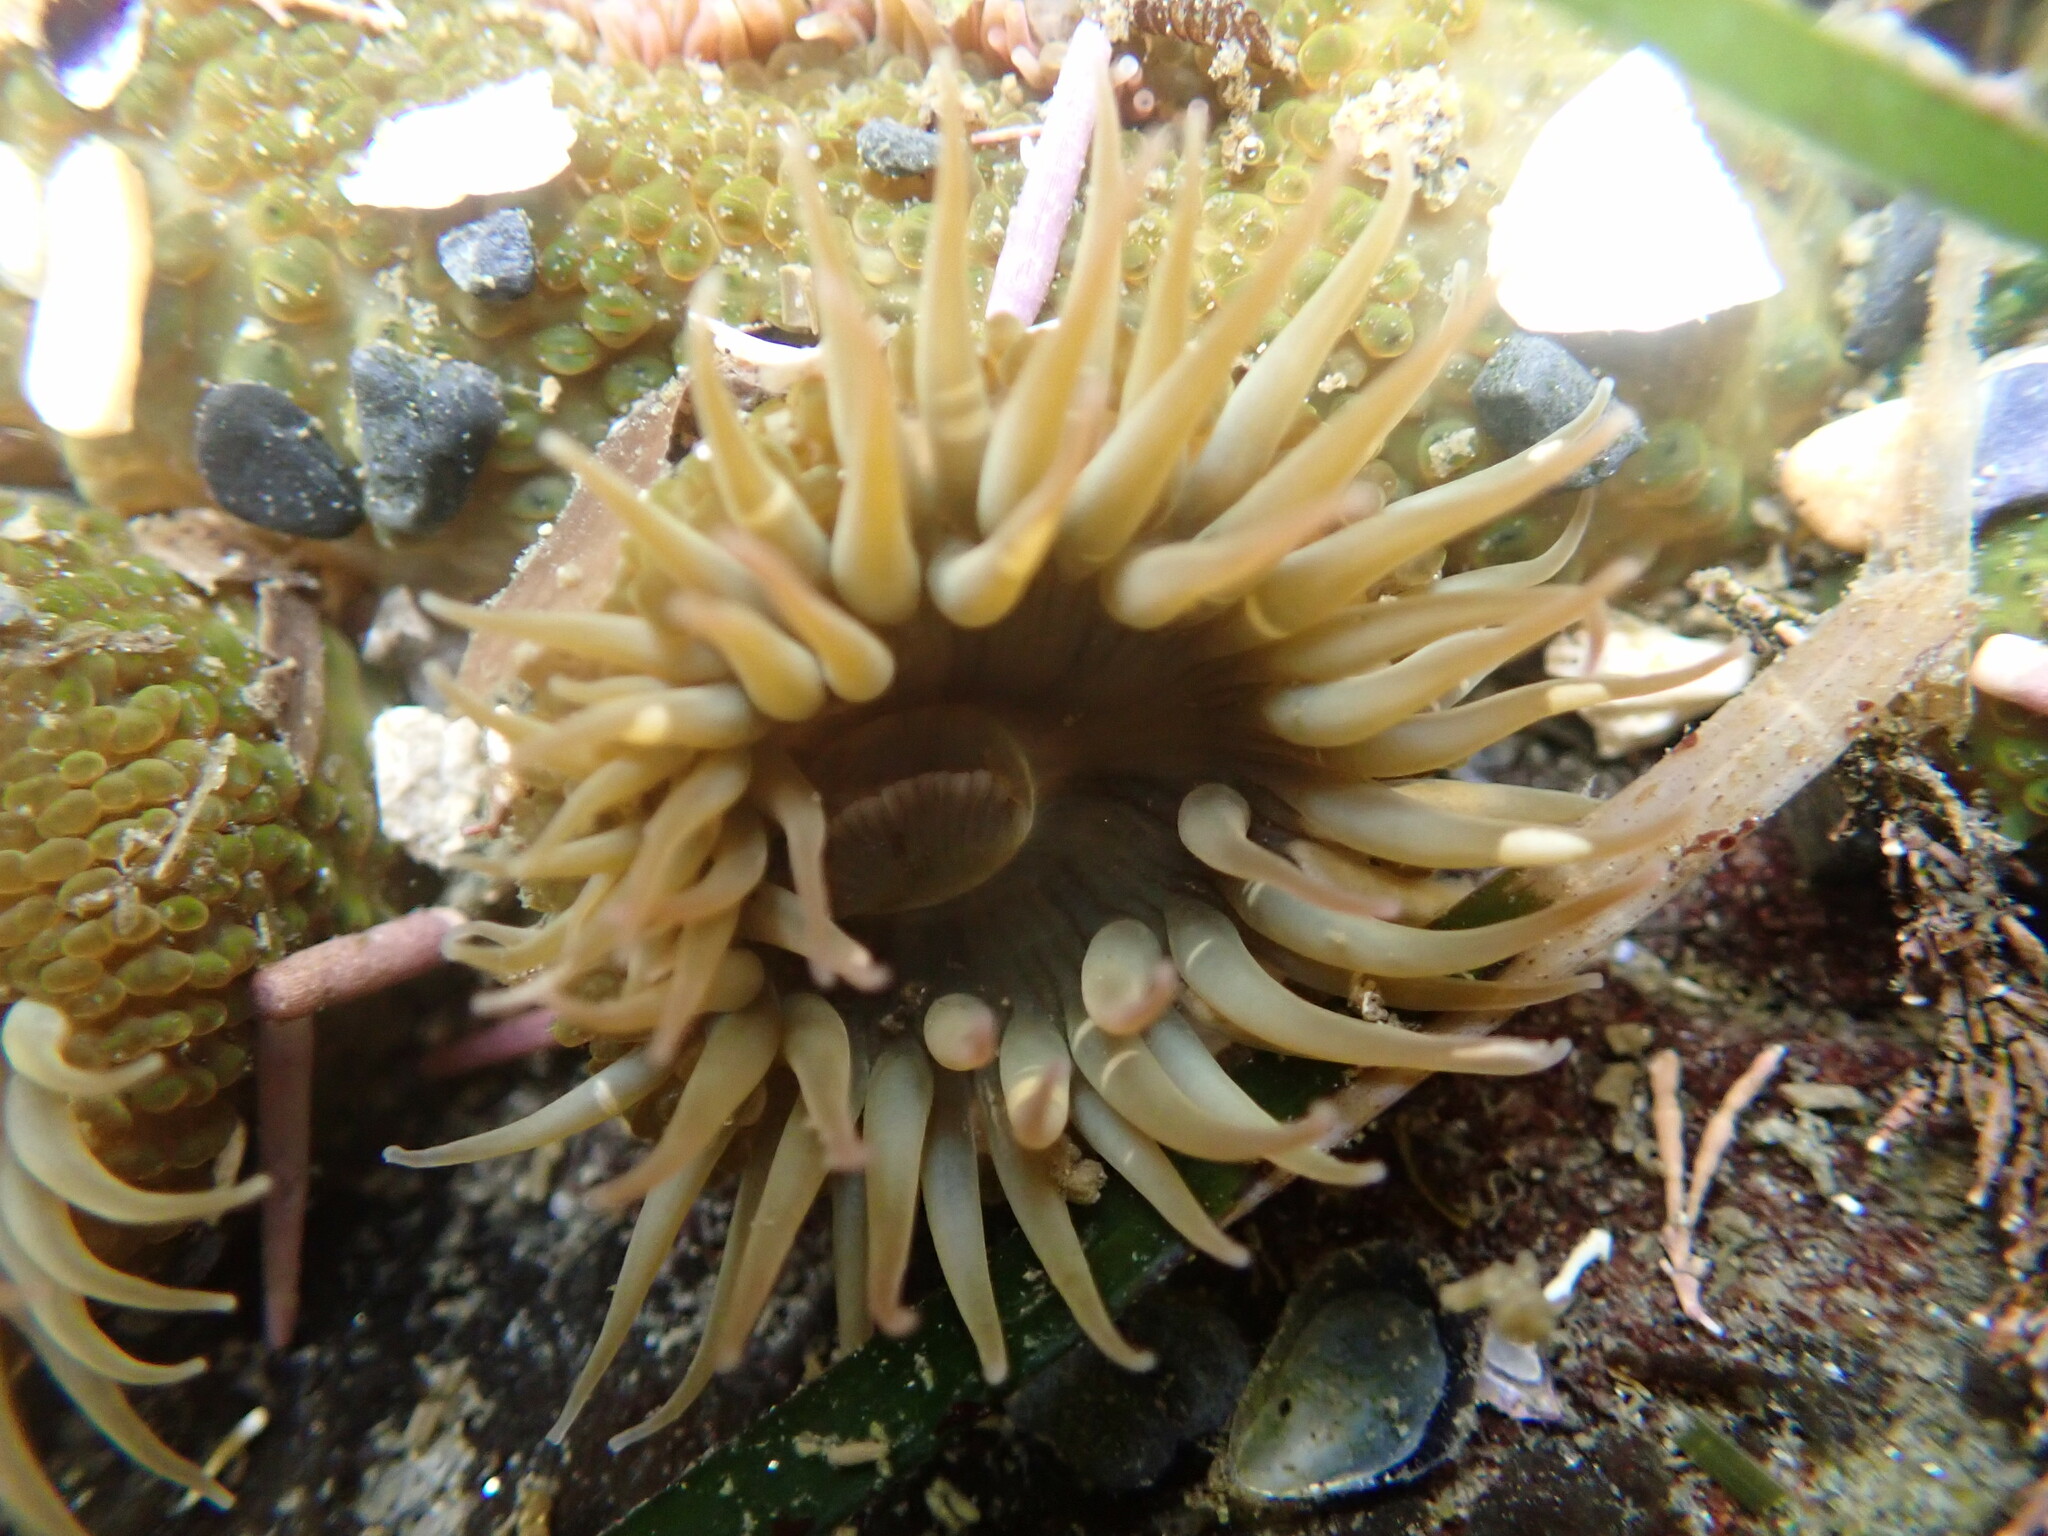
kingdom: Animalia
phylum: Cnidaria
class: Anthozoa
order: Actiniaria
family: Actiniidae
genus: Anthopleura
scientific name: Anthopleura elegantissima
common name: Clonal anemone
